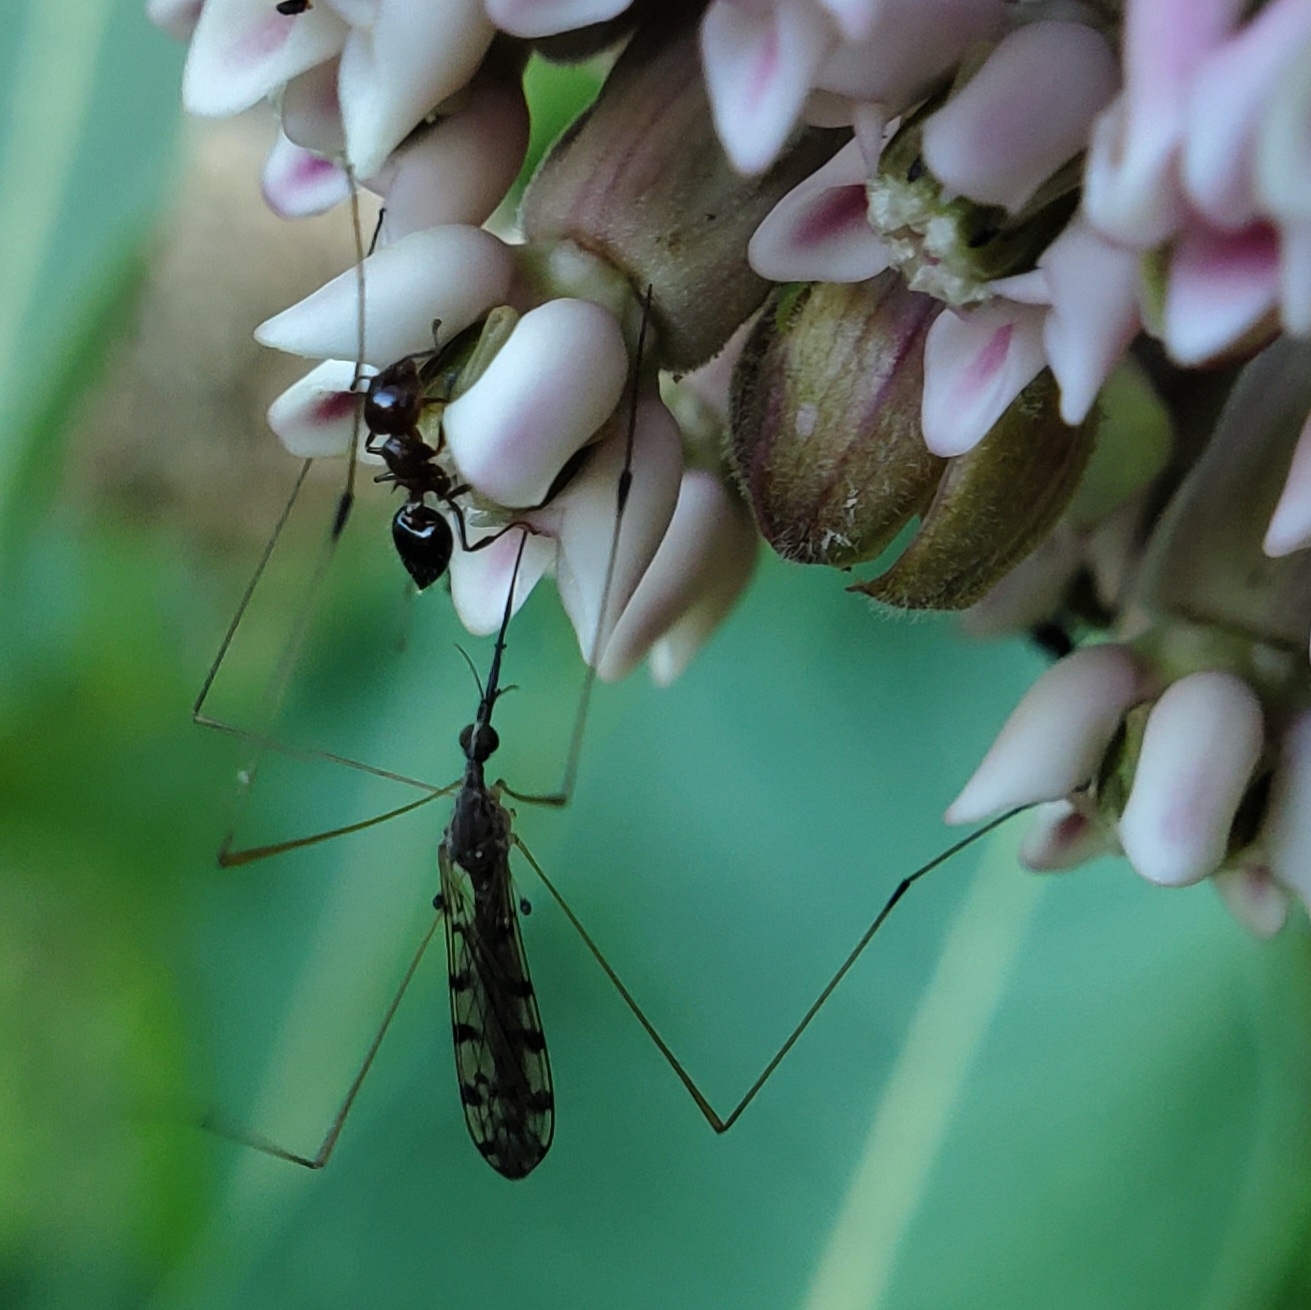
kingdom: Animalia
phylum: Arthropoda
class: Insecta
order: Diptera
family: Limoniidae
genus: Geranomyia
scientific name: Geranomyia rostrata
